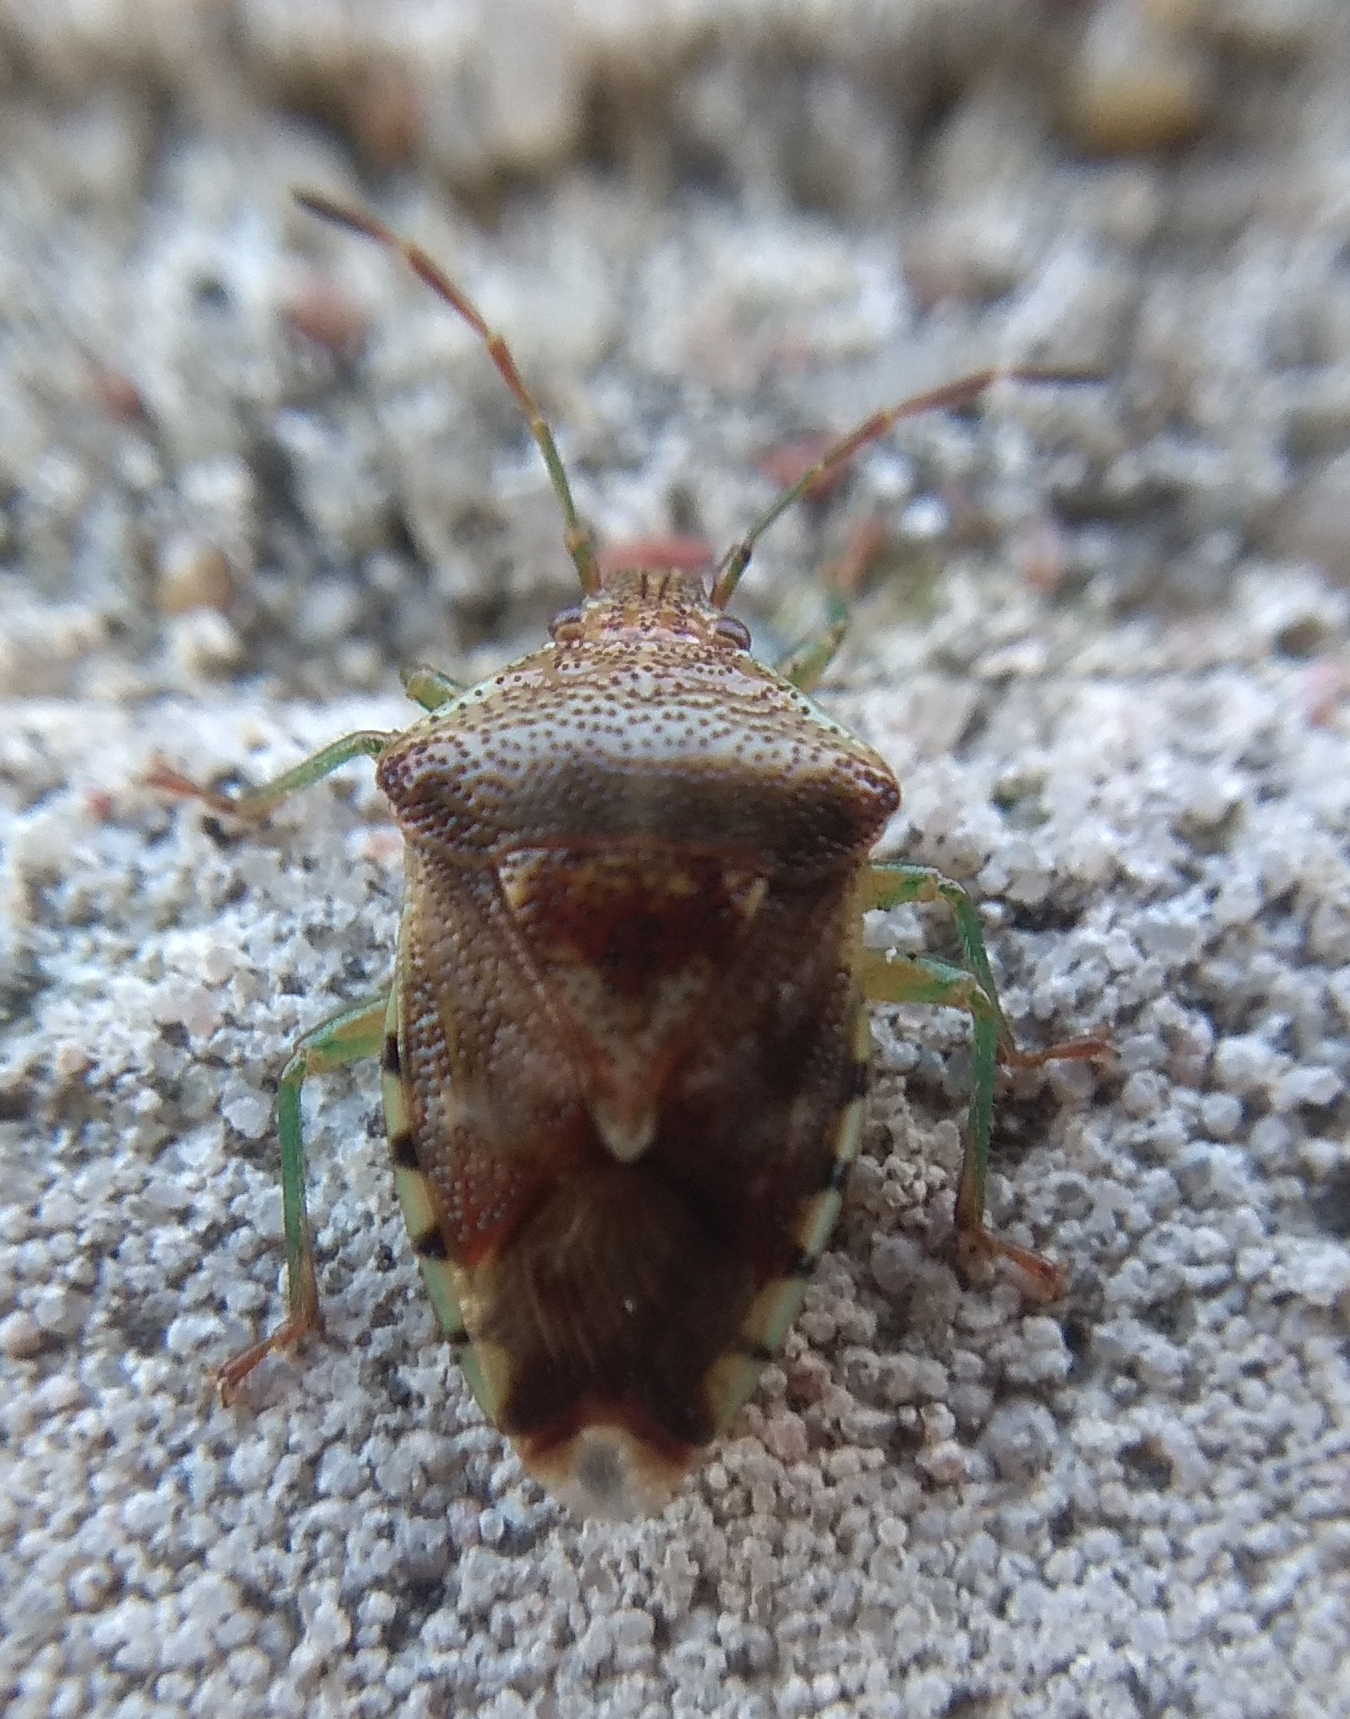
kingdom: Animalia
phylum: Arthropoda
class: Insecta
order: Hemiptera
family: Acanthosomatidae
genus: Elasmucha
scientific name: Elasmucha grisea
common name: Parent bug
